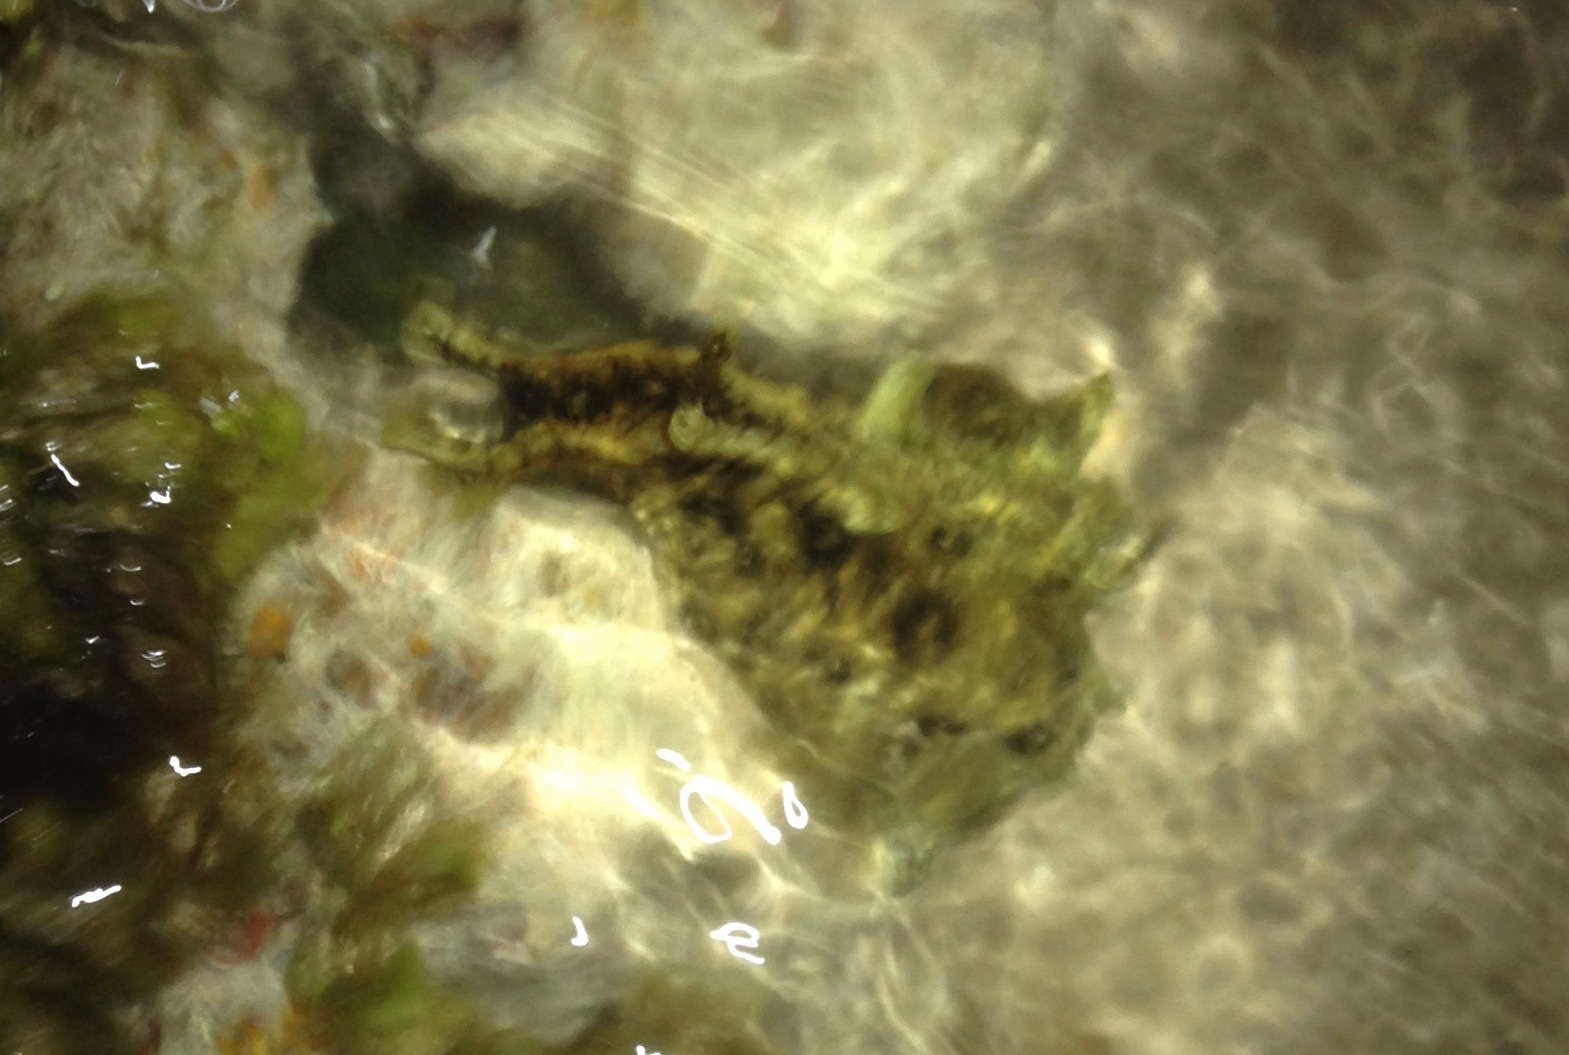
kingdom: Animalia
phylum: Mollusca
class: Gastropoda
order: Aplysiida
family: Aplysiidae
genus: Aplysia
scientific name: Aplysia dactylomela
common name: Large-spotted sea hare
